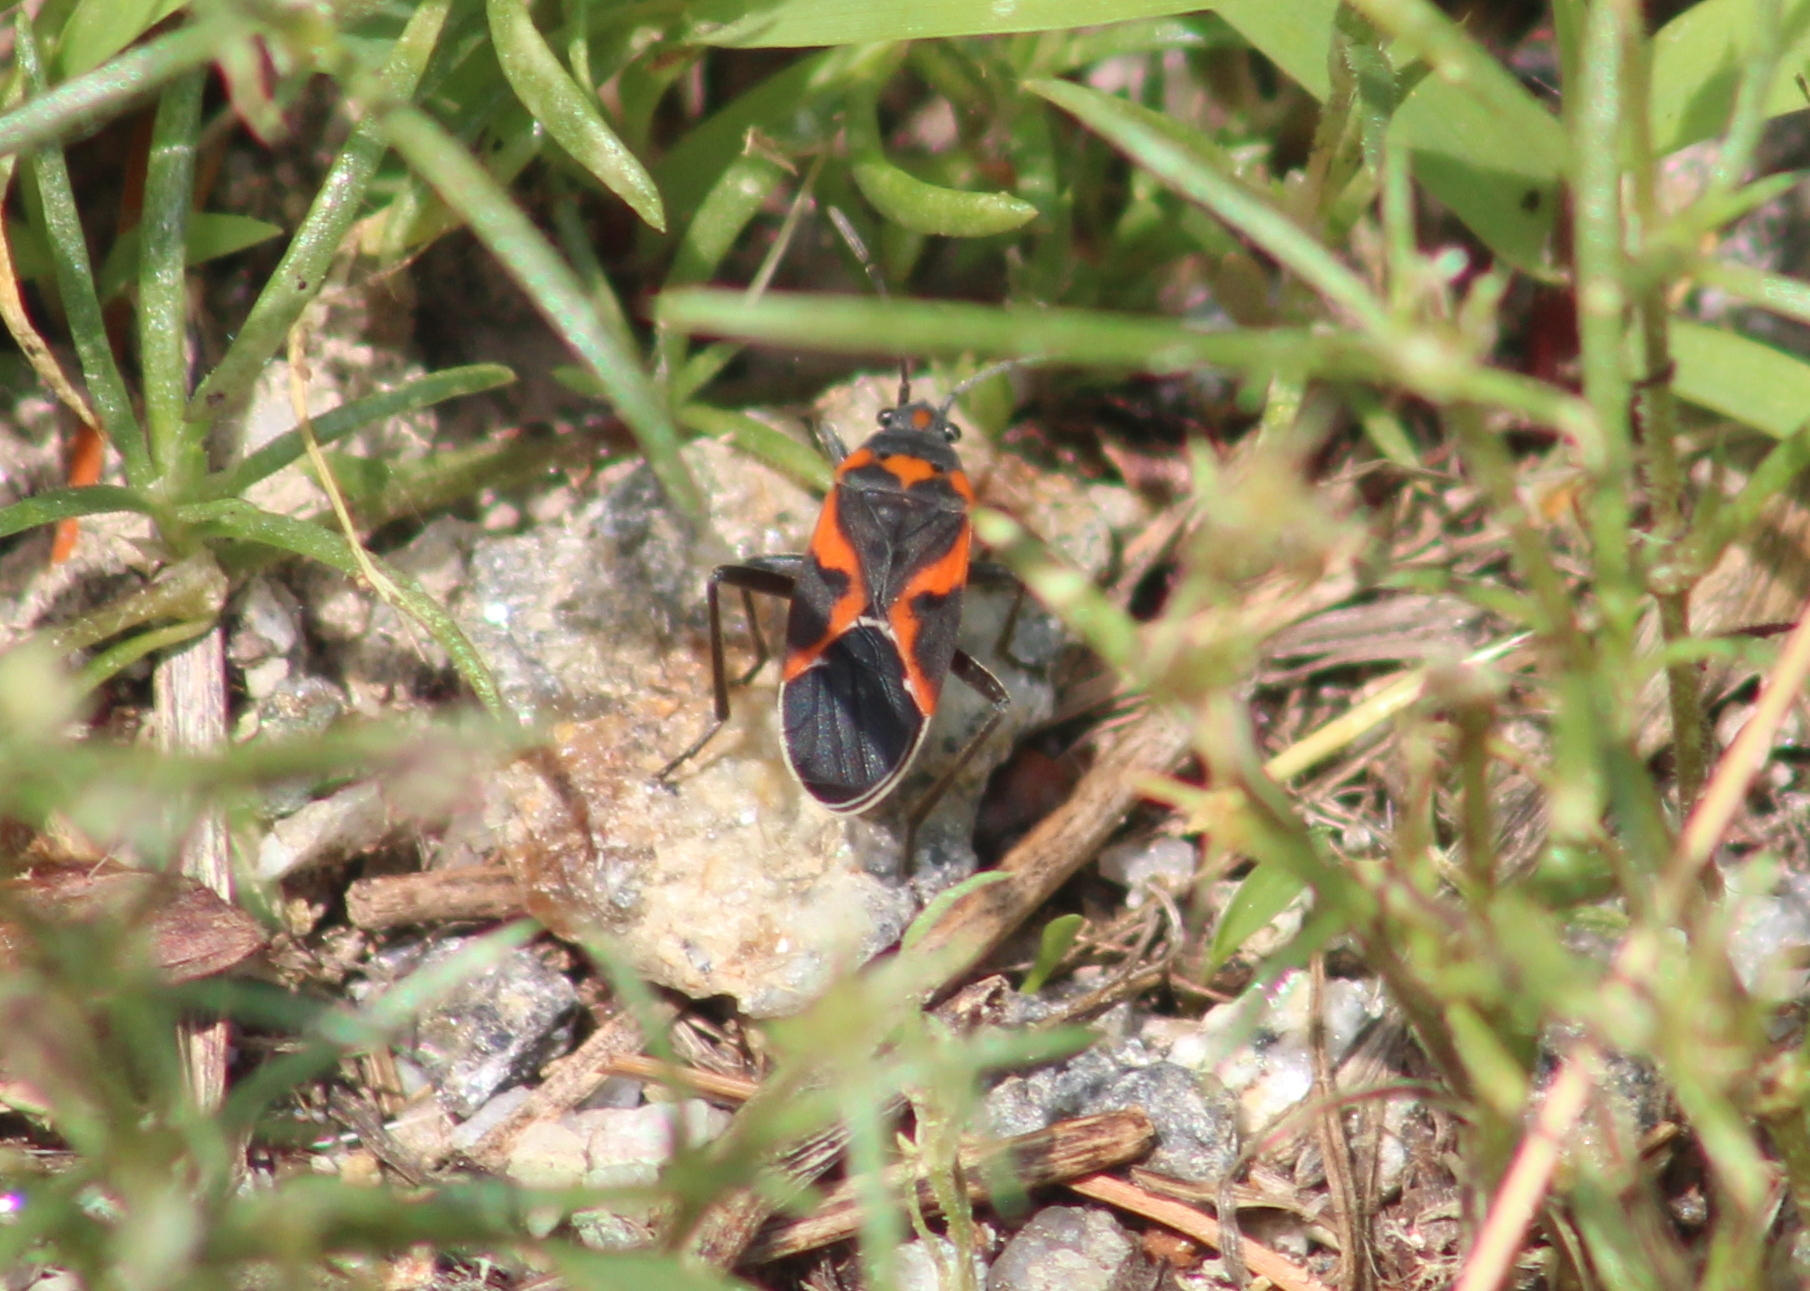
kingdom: Animalia
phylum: Arthropoda
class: Insecta
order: Hemiptera
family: Lygaeidae
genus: Lygaeus
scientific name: Lygaeus kalmii
